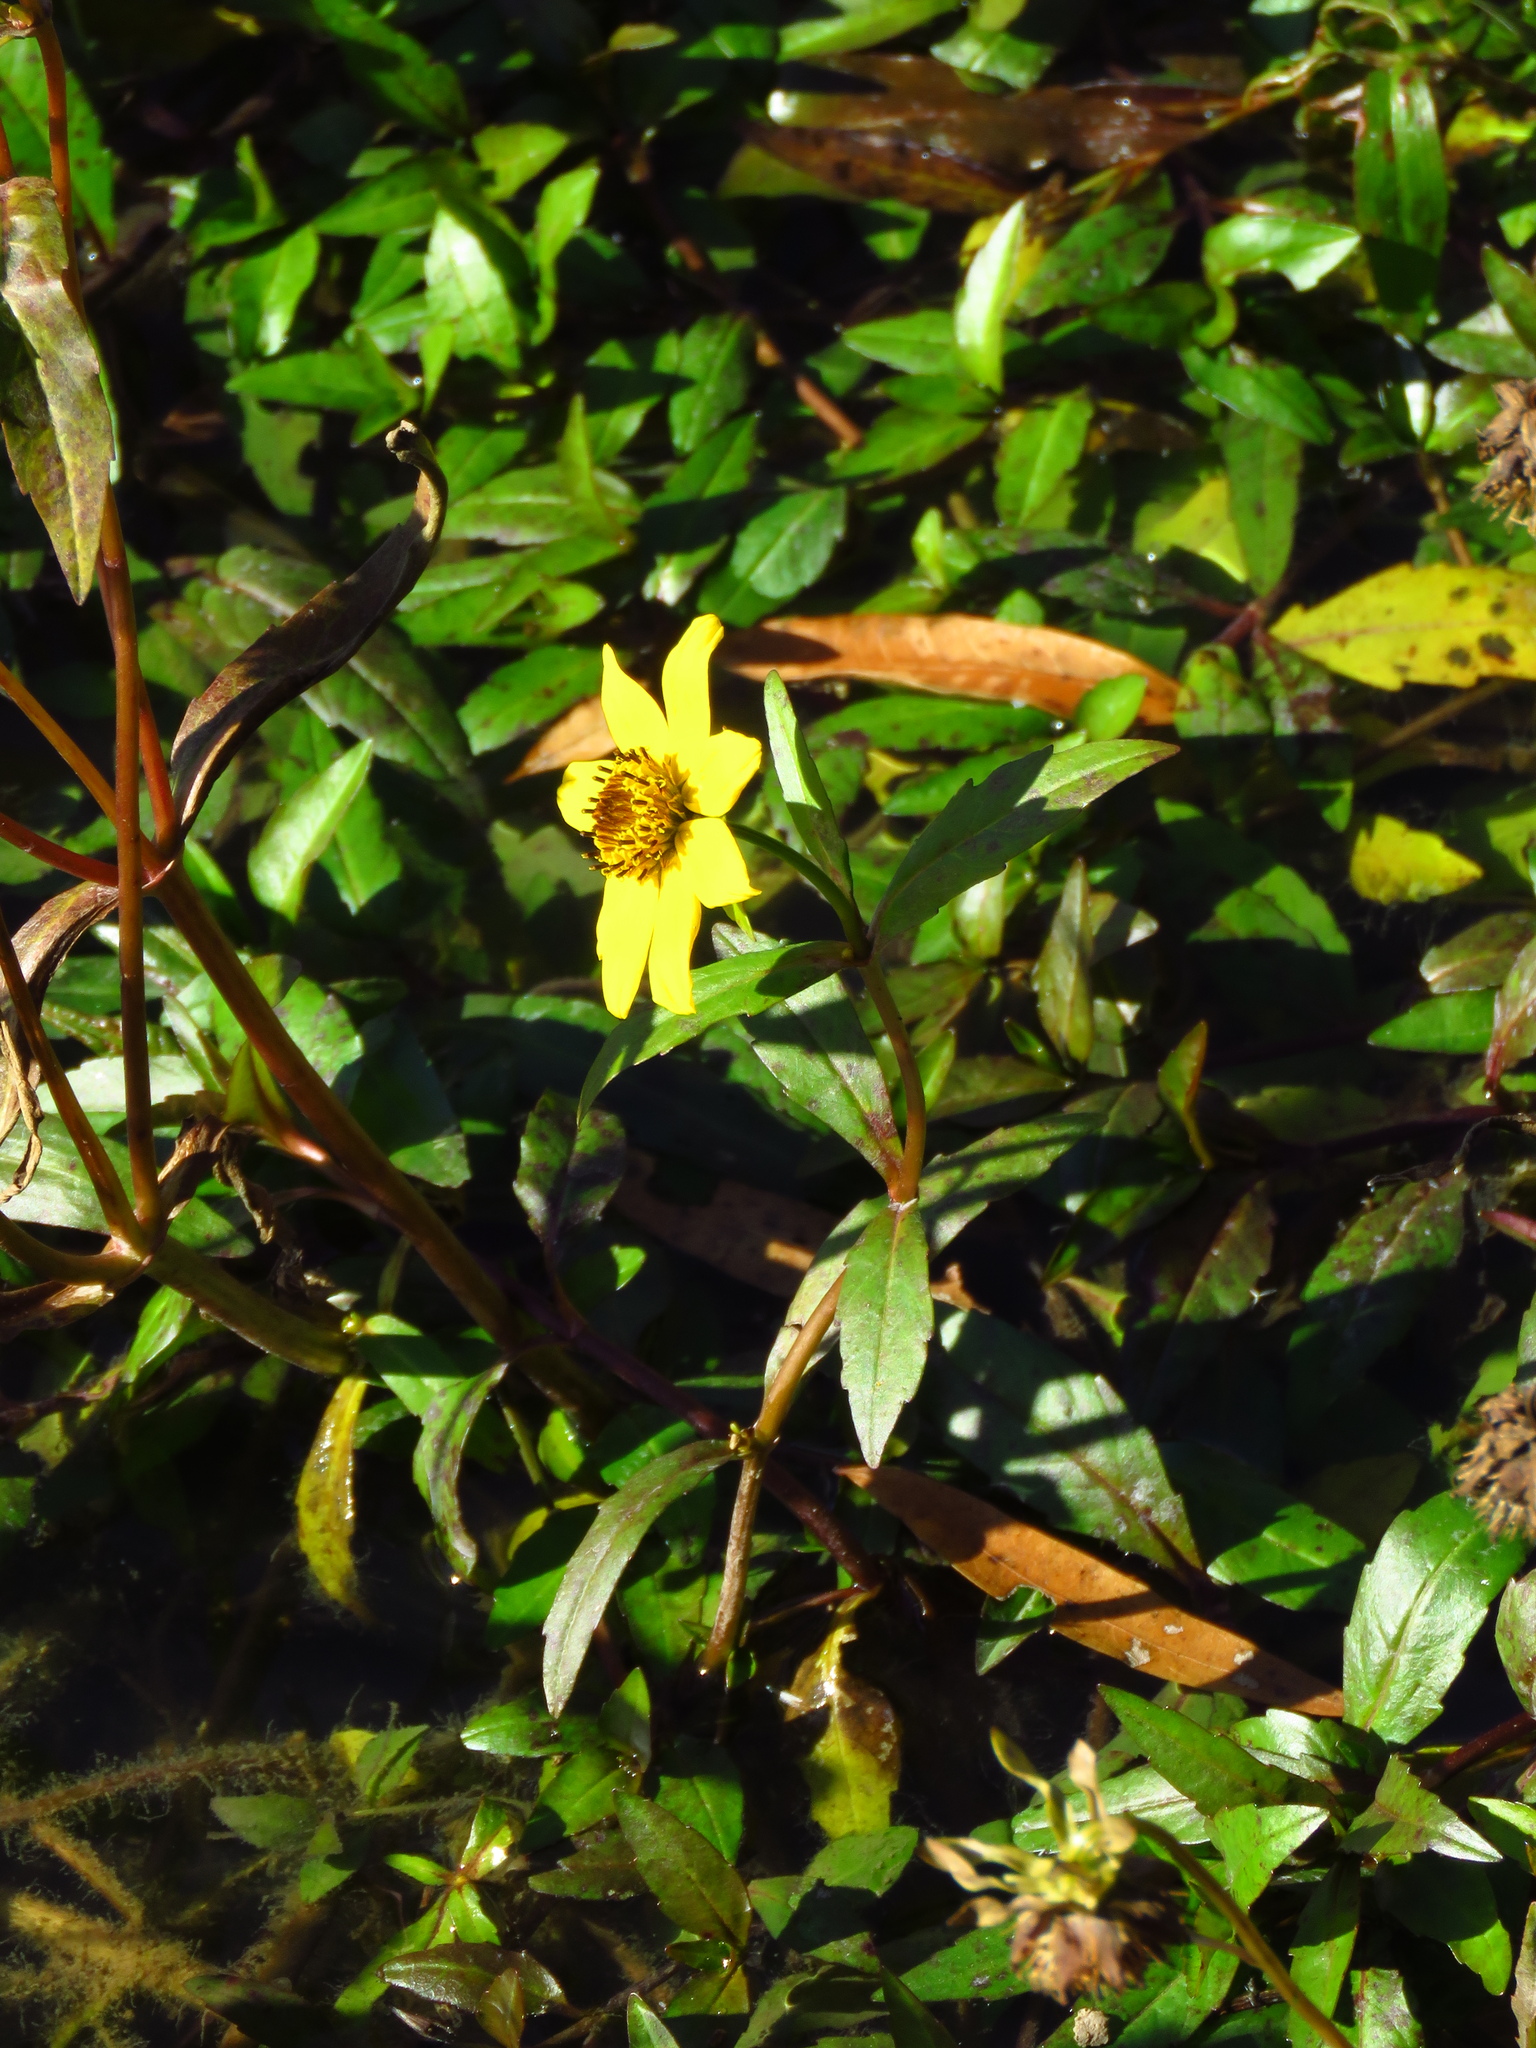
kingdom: Plantae
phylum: Tracheophyta
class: Magnoliopsida
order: Asterales
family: Asteraceae
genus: Bidens
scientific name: Bidens laevis
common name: Larger bur-marigold
